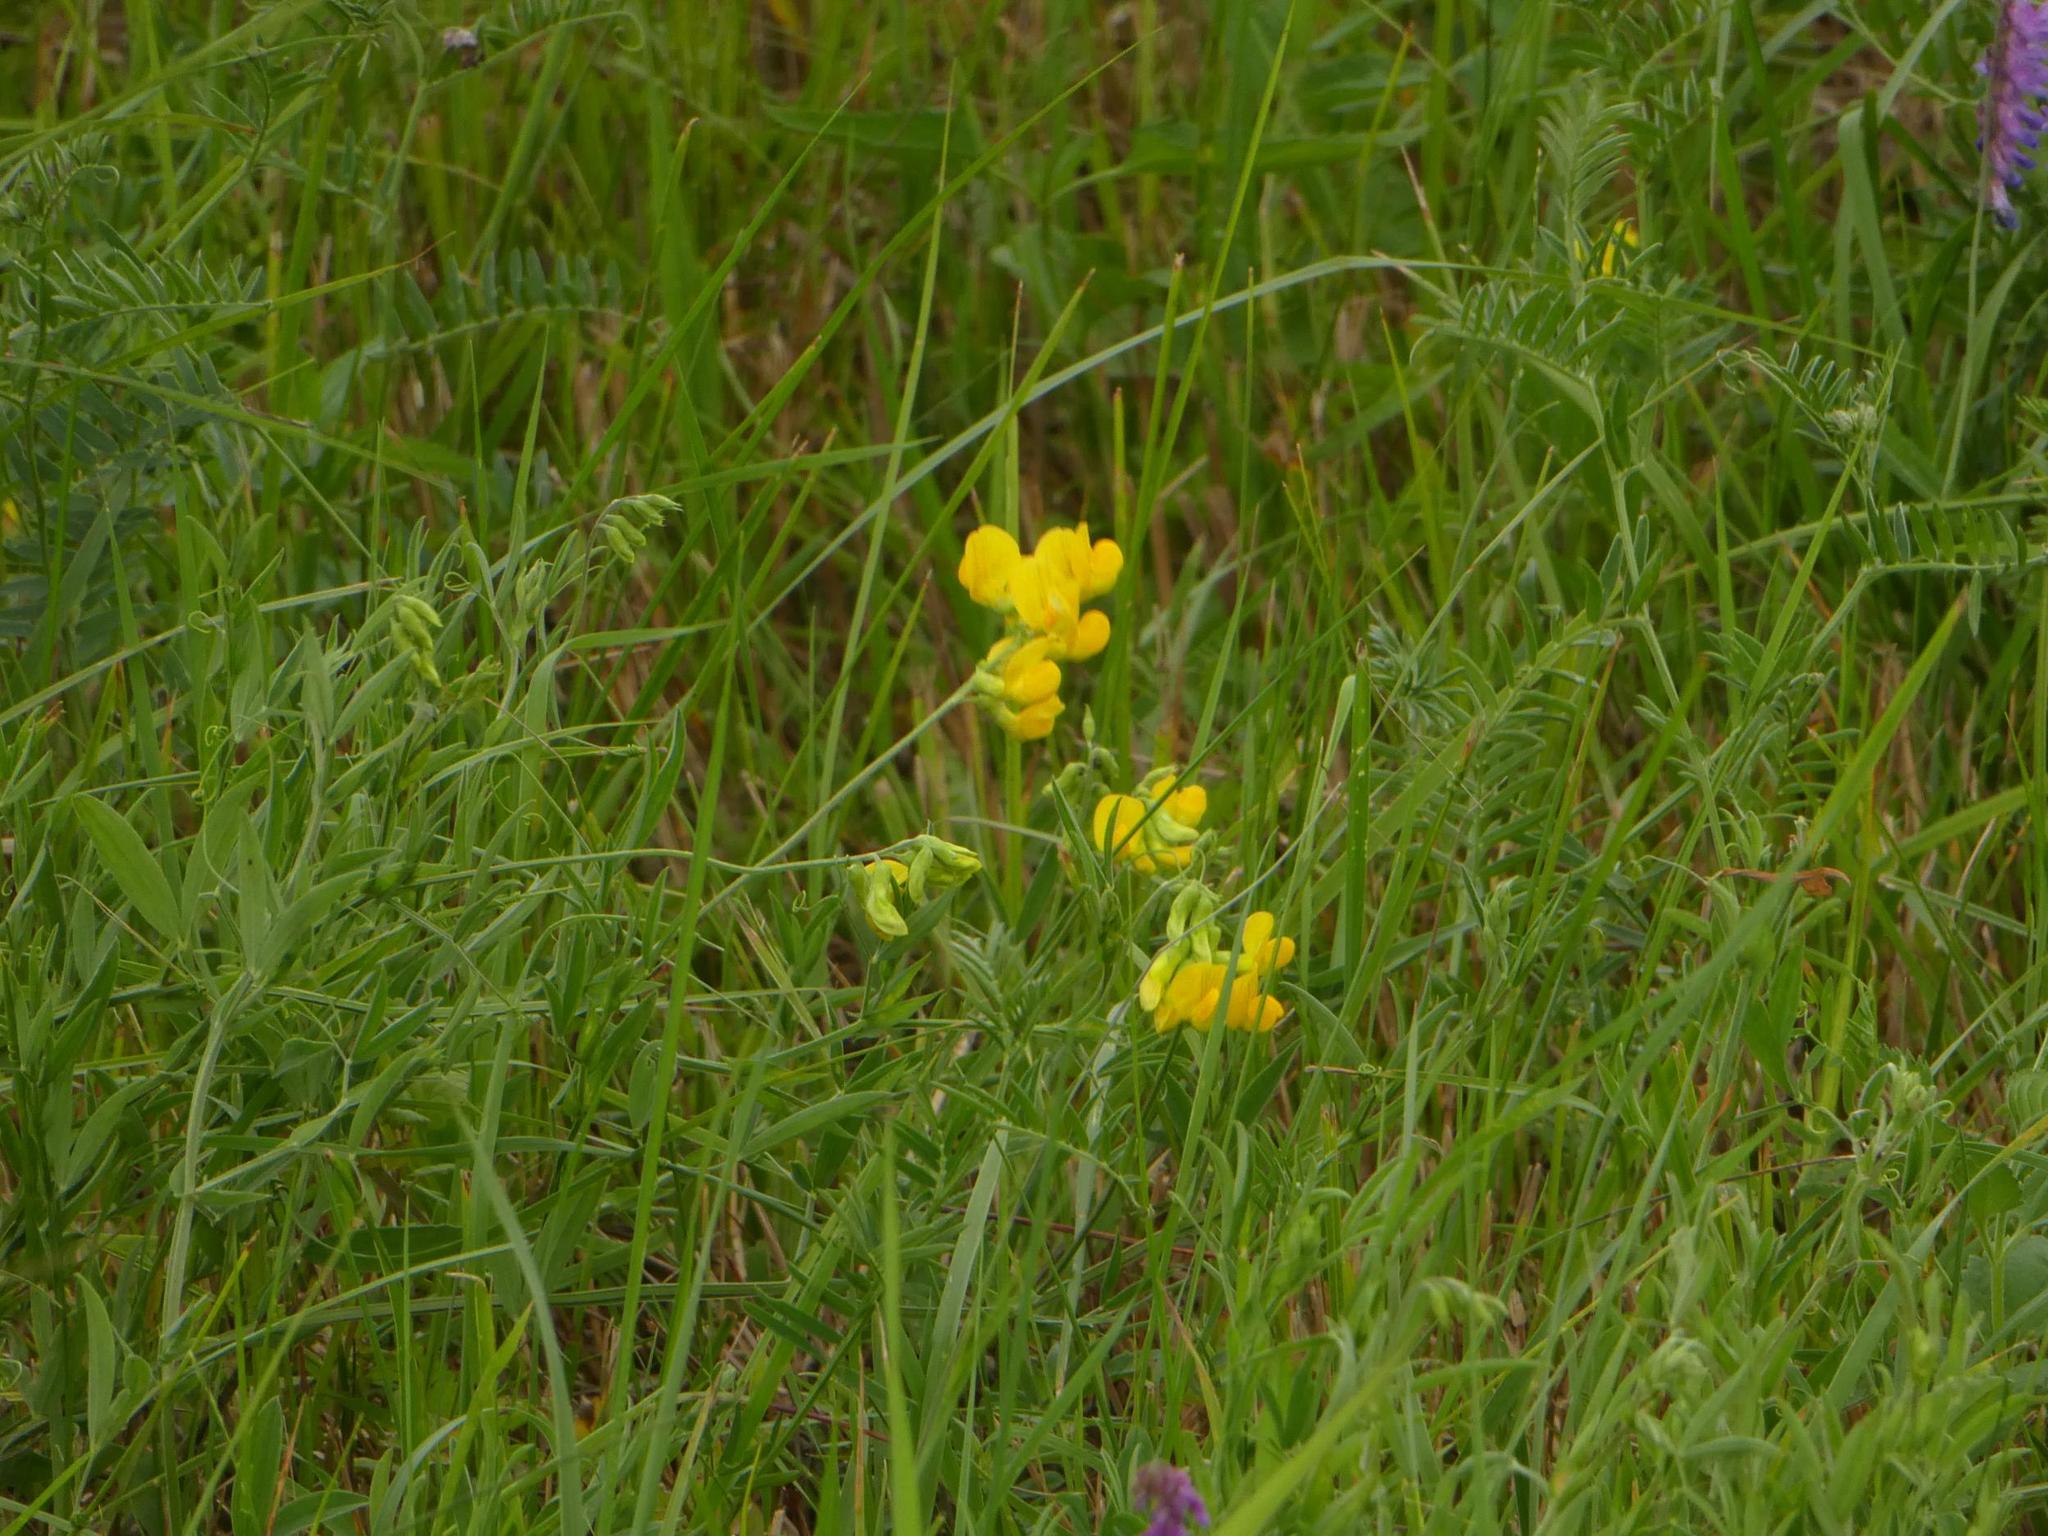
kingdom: Plantae
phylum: Tracheophyta
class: Magnoliopsida
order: Fabales
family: Fabaceae
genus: Lathyrus
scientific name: Lathyrus pratensis
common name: Meadow vetchling
